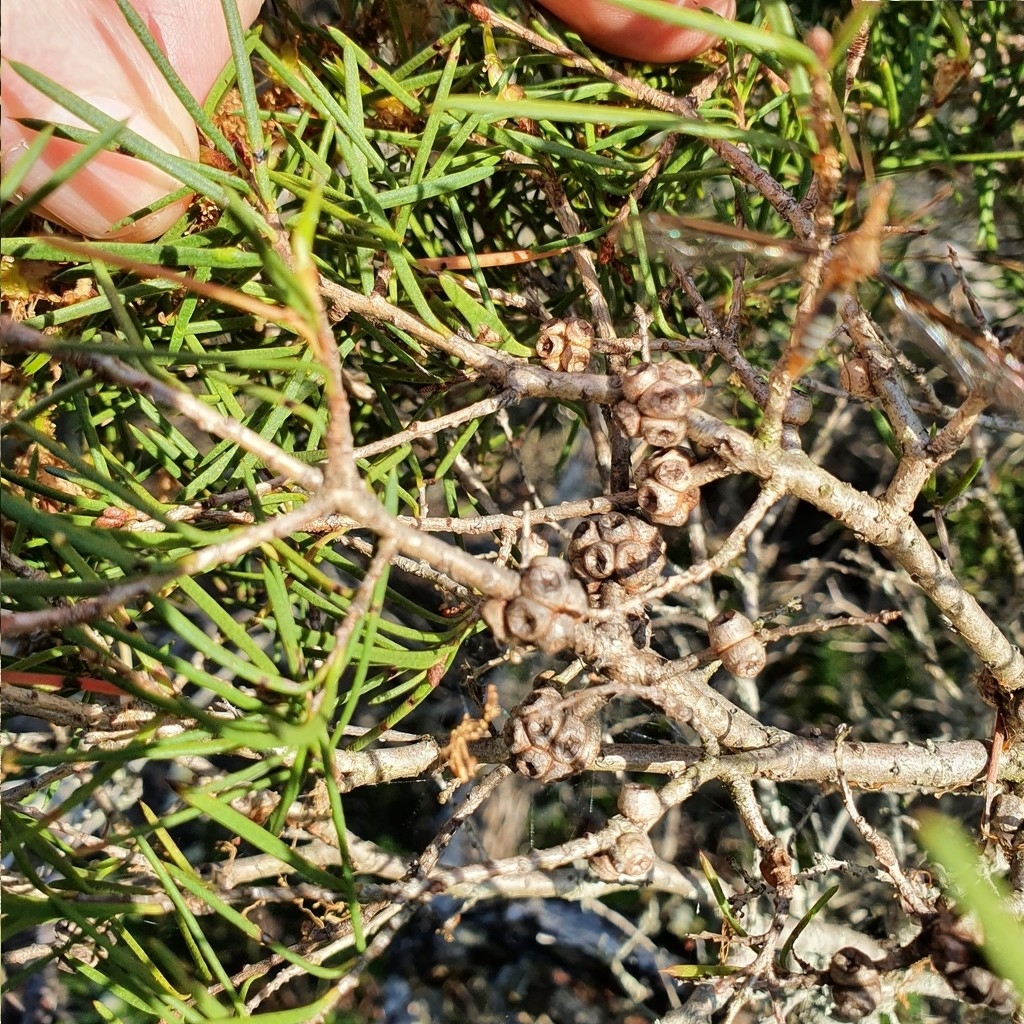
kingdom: Plantae
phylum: Tracheophyta
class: Magnoliopsida
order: Myrtales
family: Myrtaceae
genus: Melaleuca
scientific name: Melaleuca nodosa
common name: Prickly-leaf paperbark
